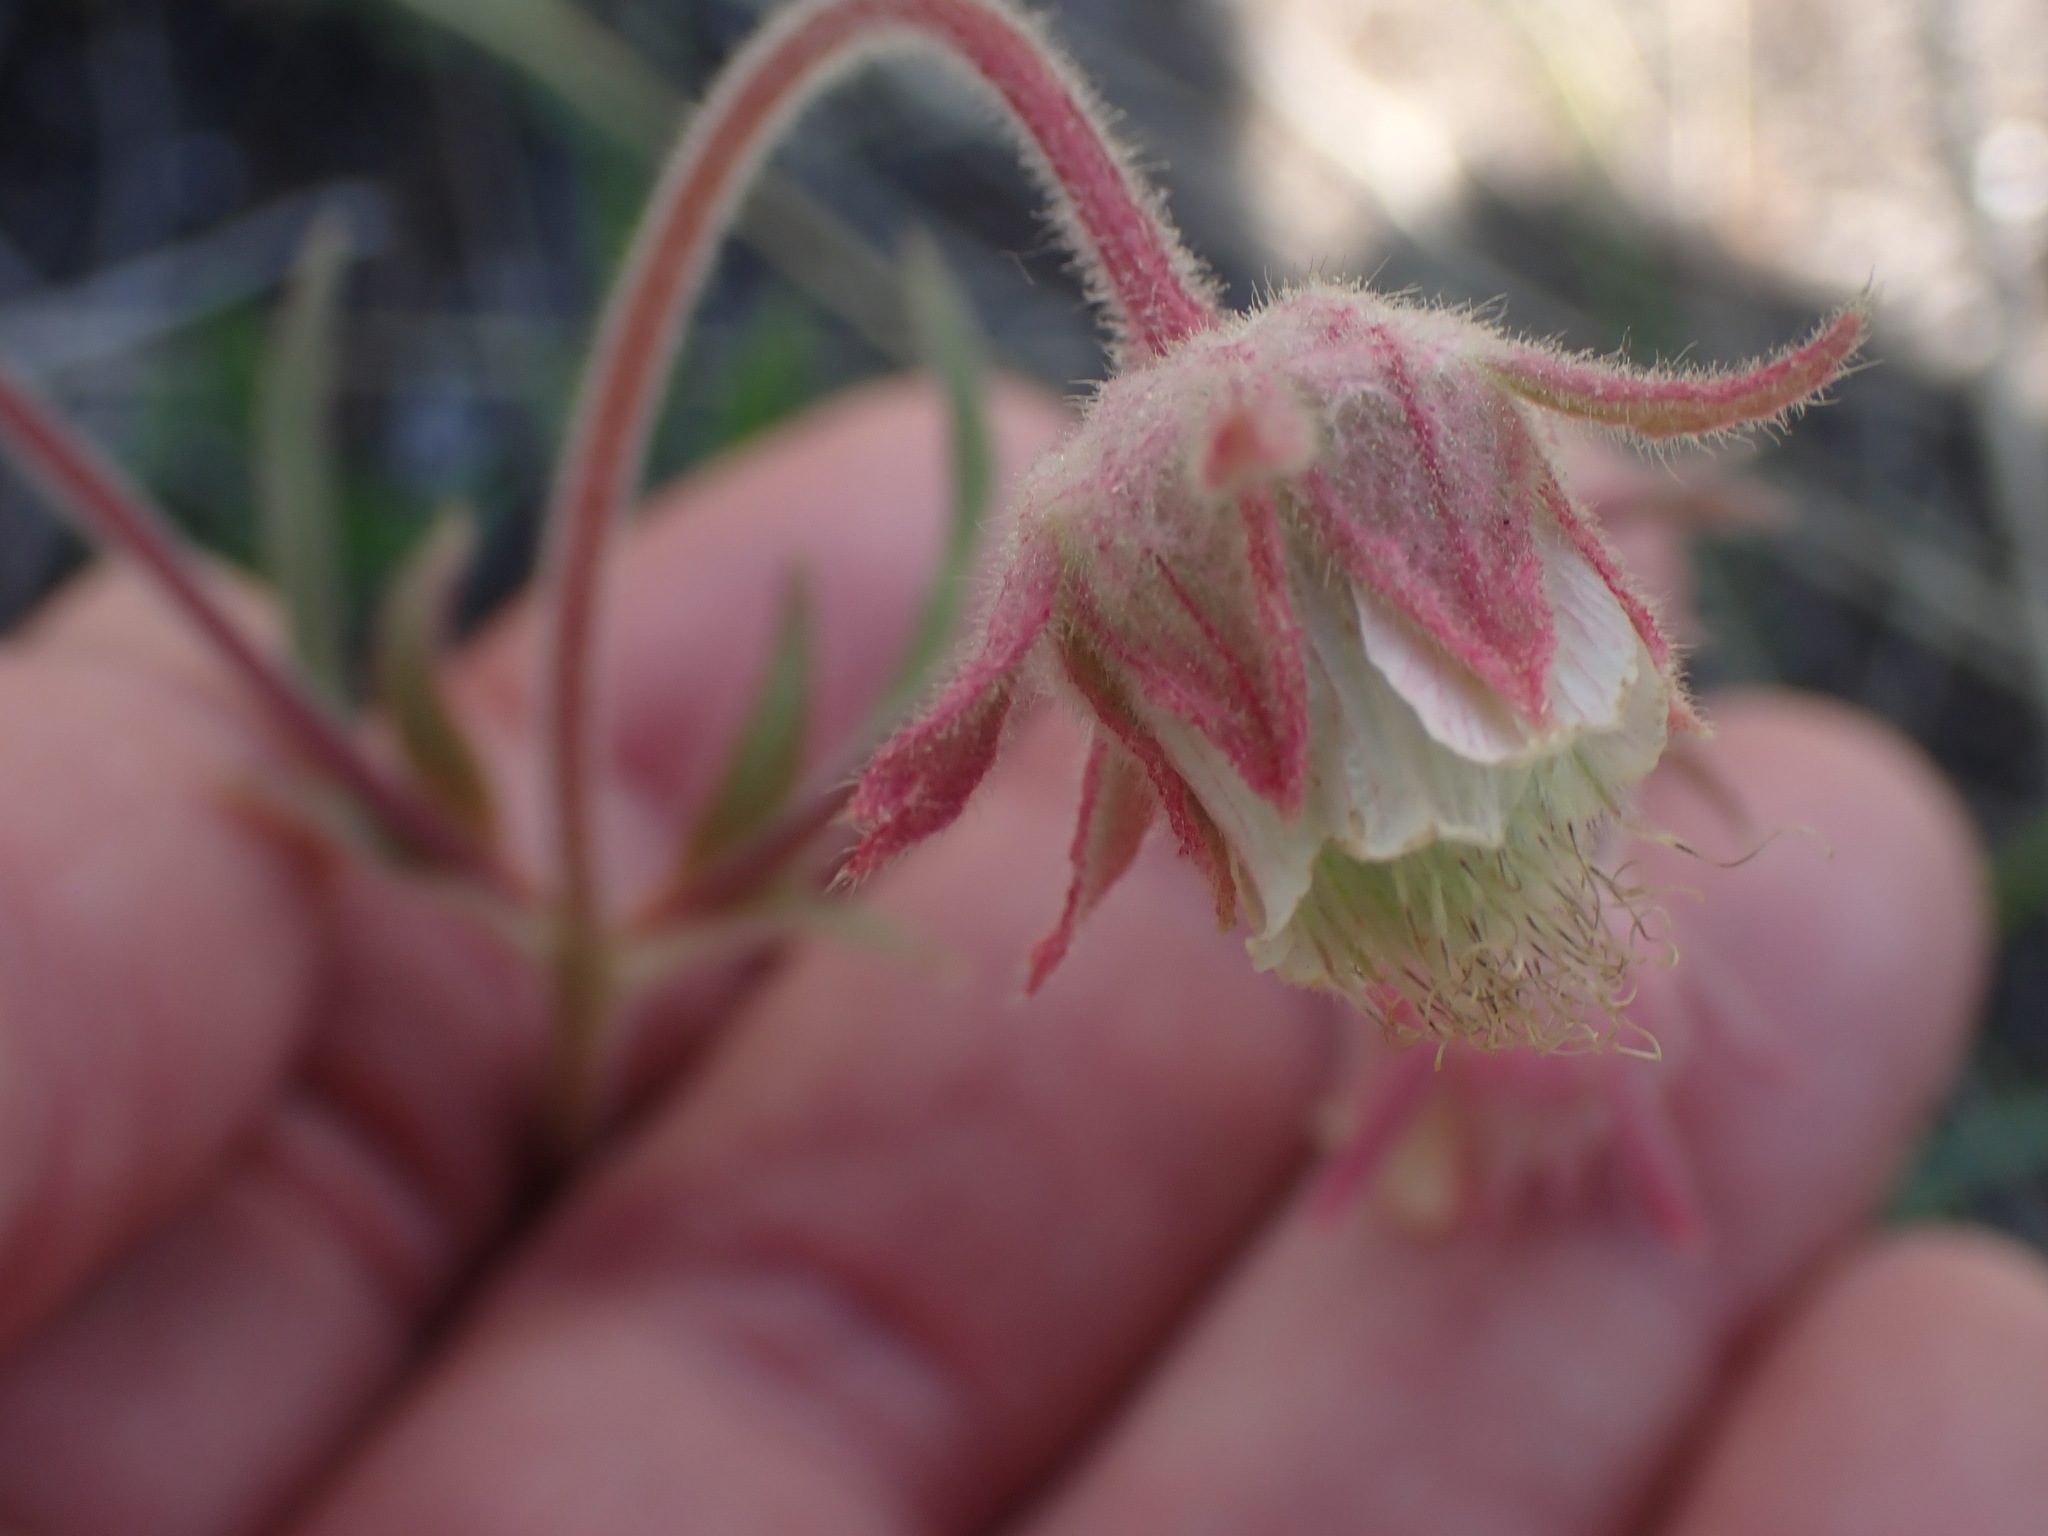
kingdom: Plantae
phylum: Tracheophyta
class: Magnoliopsida
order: Rosales
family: Rosaceae
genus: Geum
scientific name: Geum triflorum
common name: Old man's whiskers
